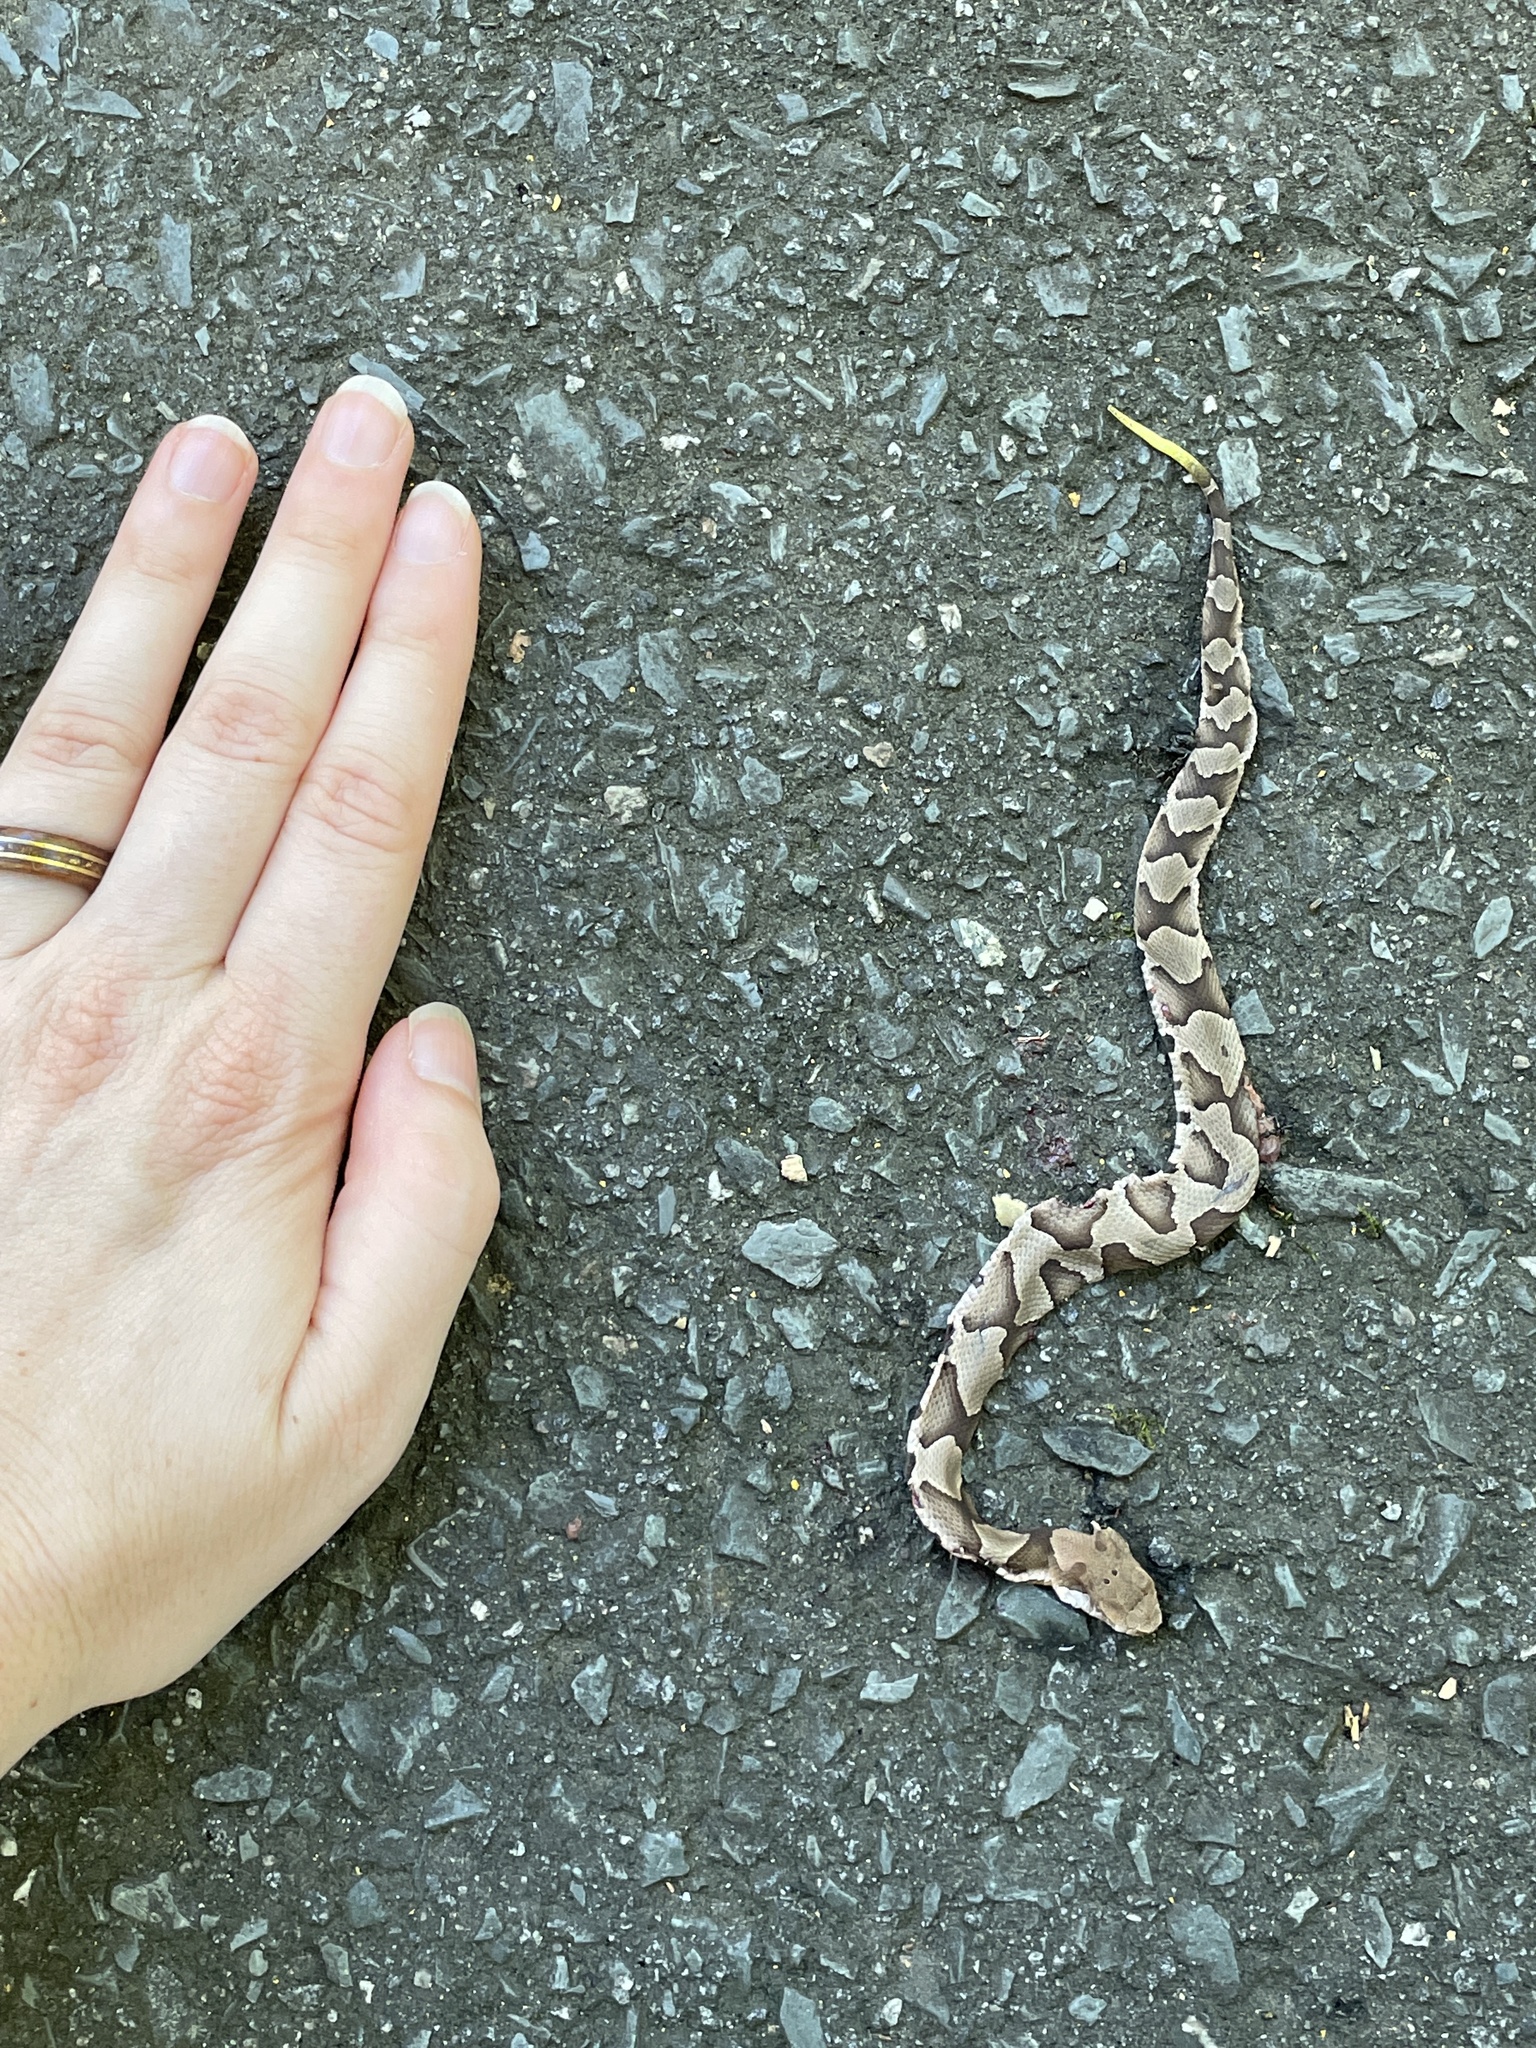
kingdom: Animalia
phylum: Chordata
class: Squamata
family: Viperidae
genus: Agkistrodon
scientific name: Agkistrodon contortrix
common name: Northern copperhead
